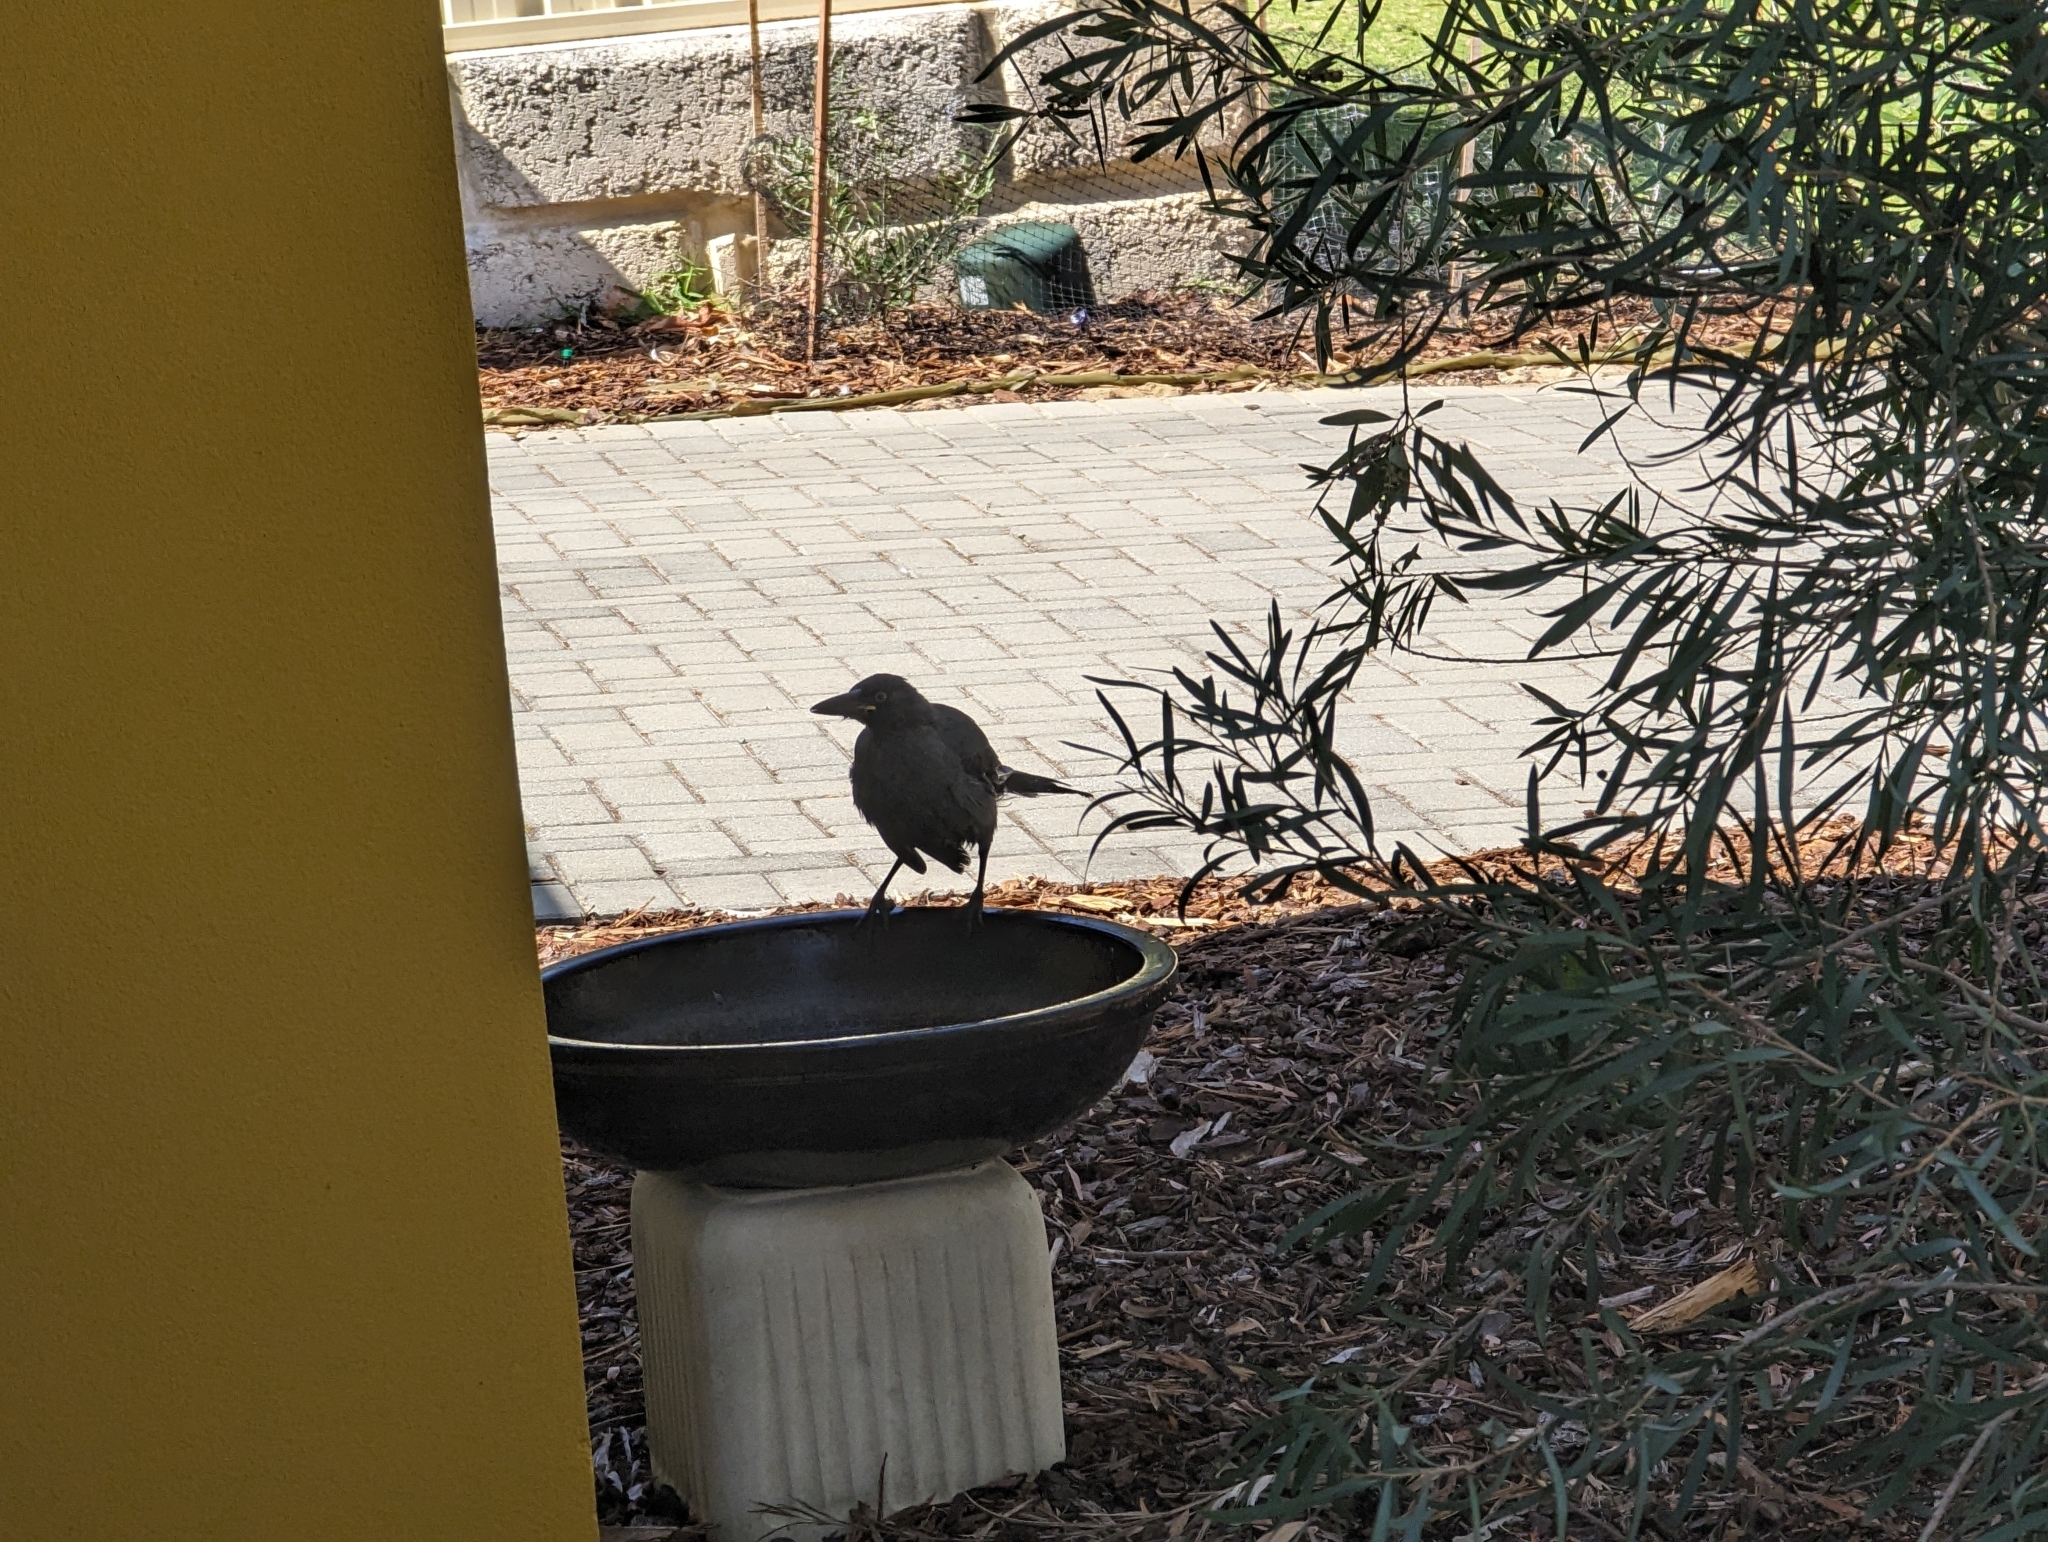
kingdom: Animalia
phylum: Chordata
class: Aves
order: Passeriformes
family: Cracticidae
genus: Strepera
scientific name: Strepera versicolor
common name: Grey currawong
